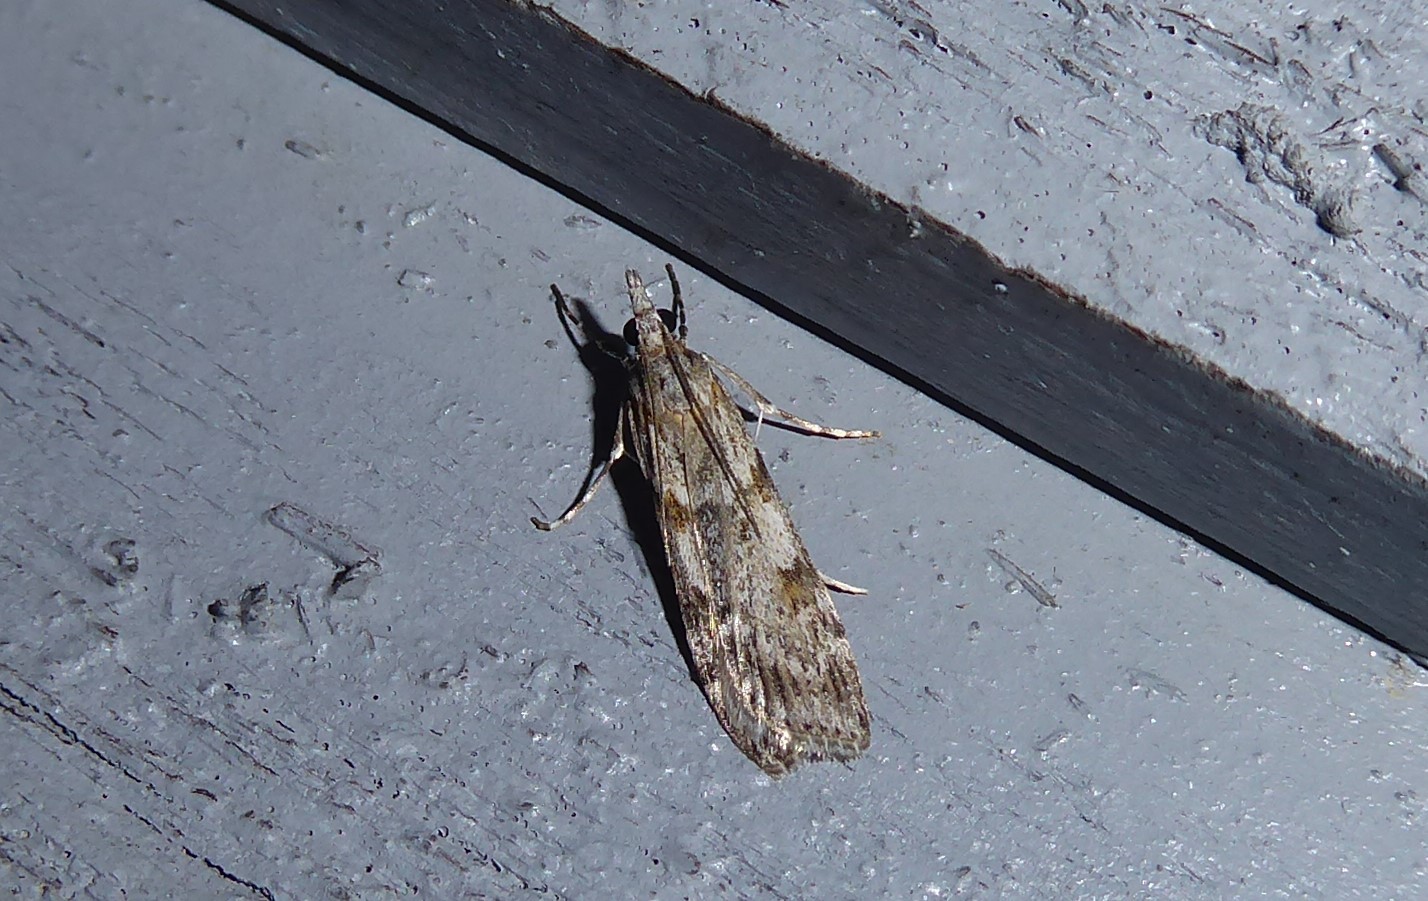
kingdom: Animalia
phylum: Arthropoda
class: Insecta
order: Lepidoptera
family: Crambidae
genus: Scoparia
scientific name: Scoparia halopis
